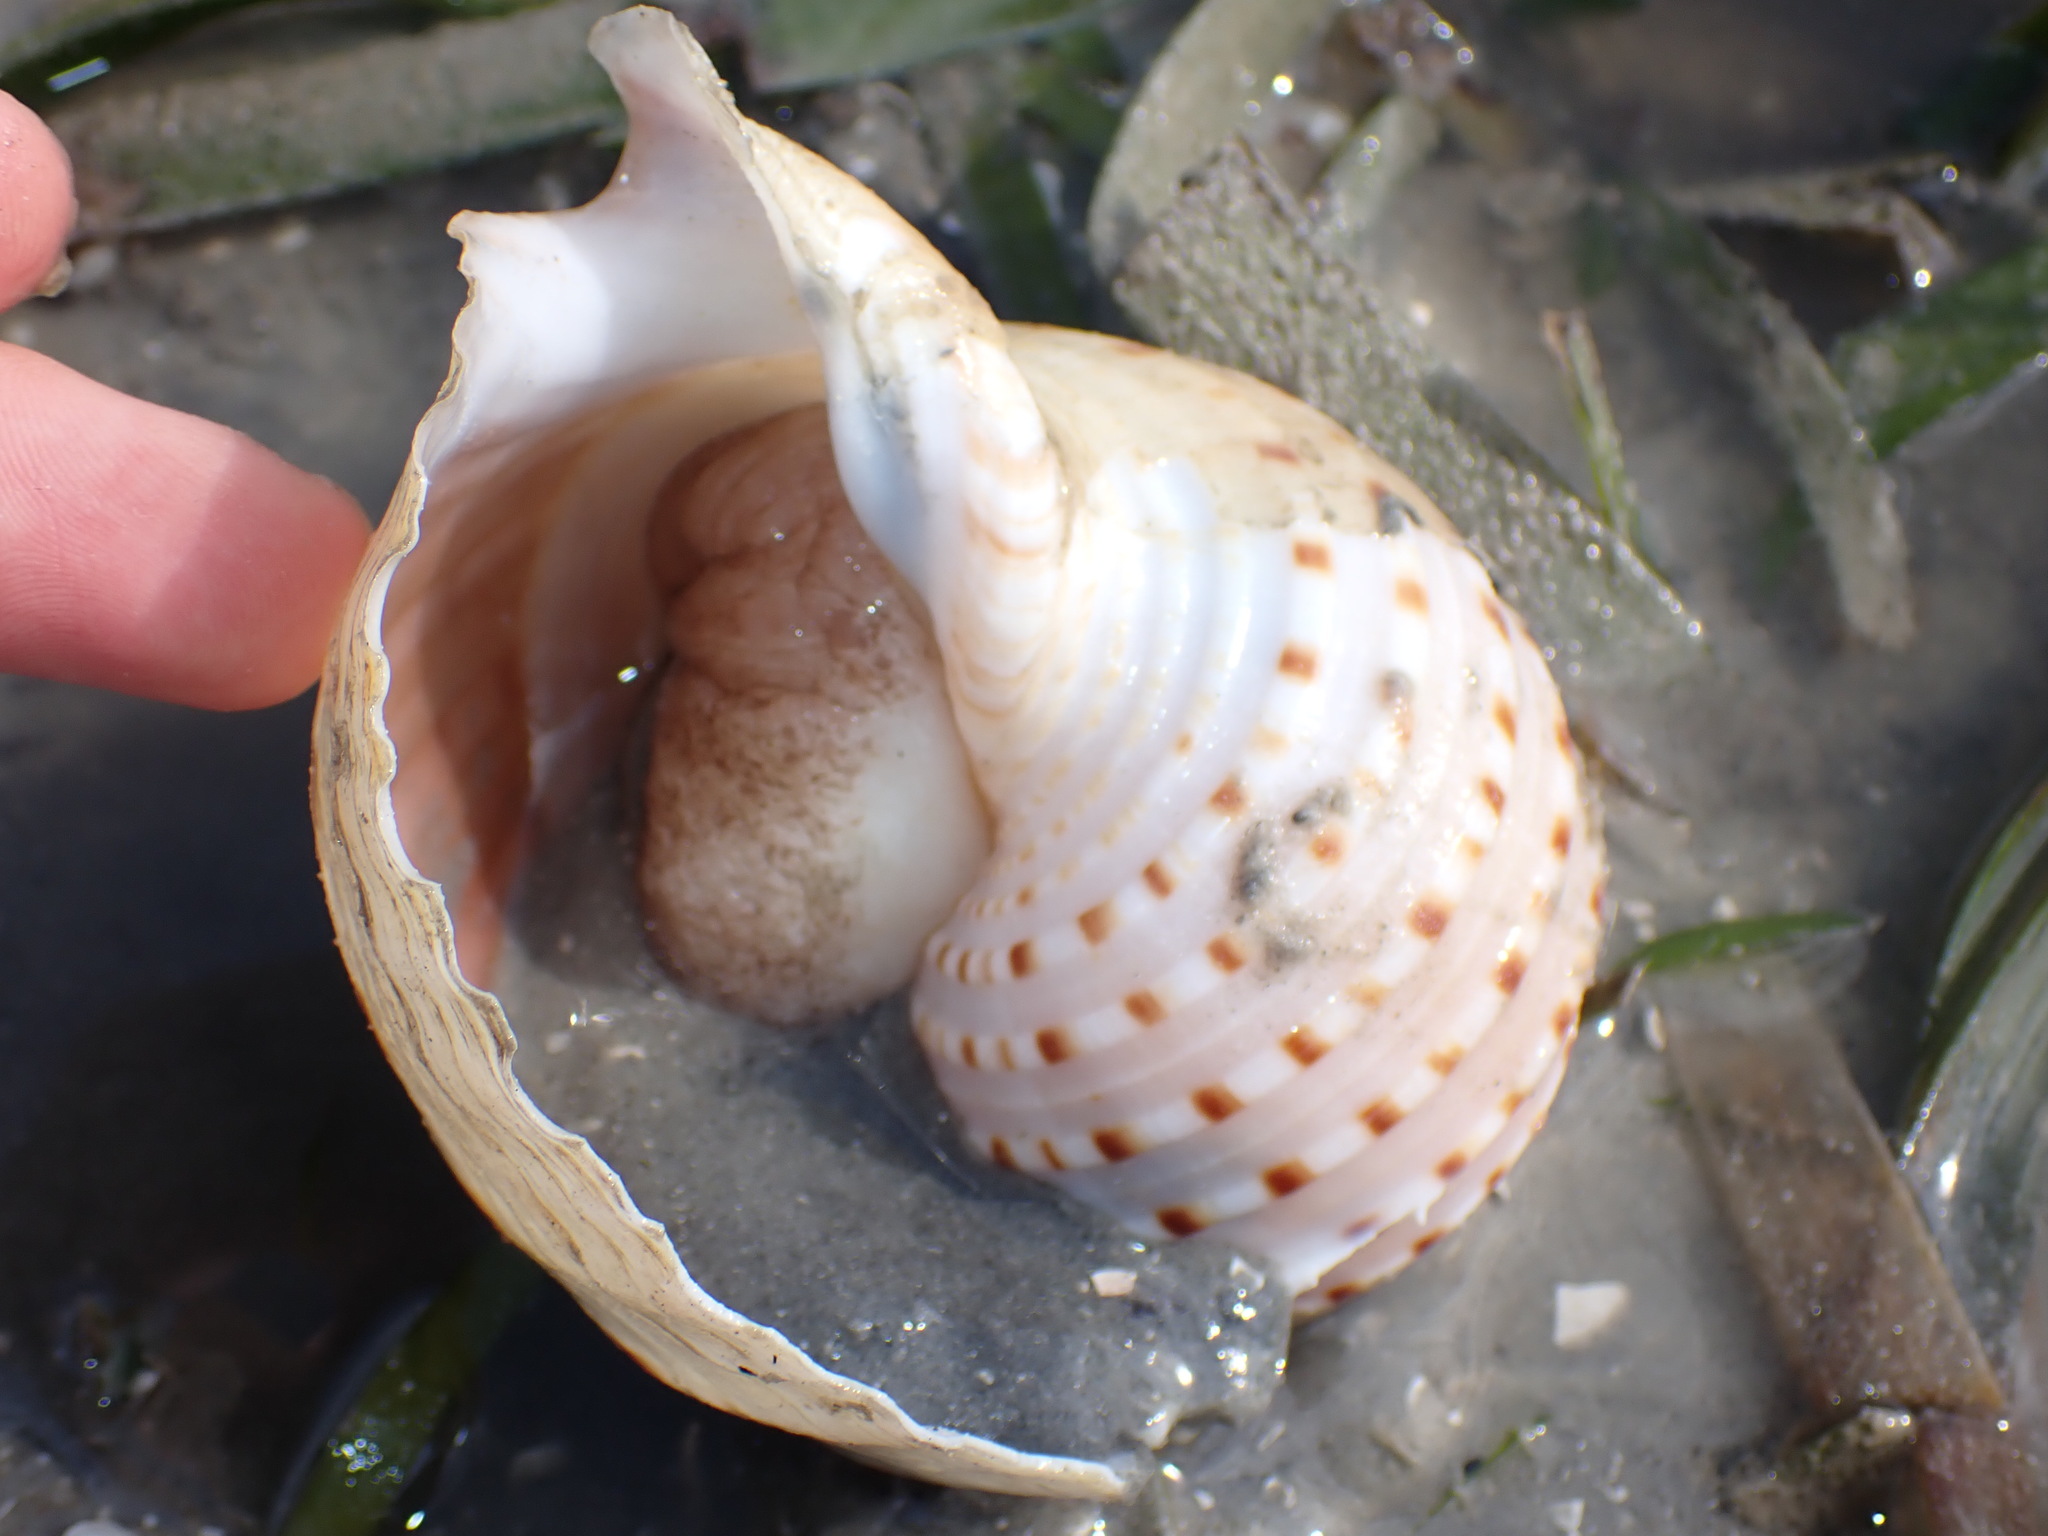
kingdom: Animalia
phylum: Mollusca
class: Gastropoda
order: Littorinimorpha
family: Tonnidae
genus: Tonna
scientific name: Tonna dolium
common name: Spotted tun
